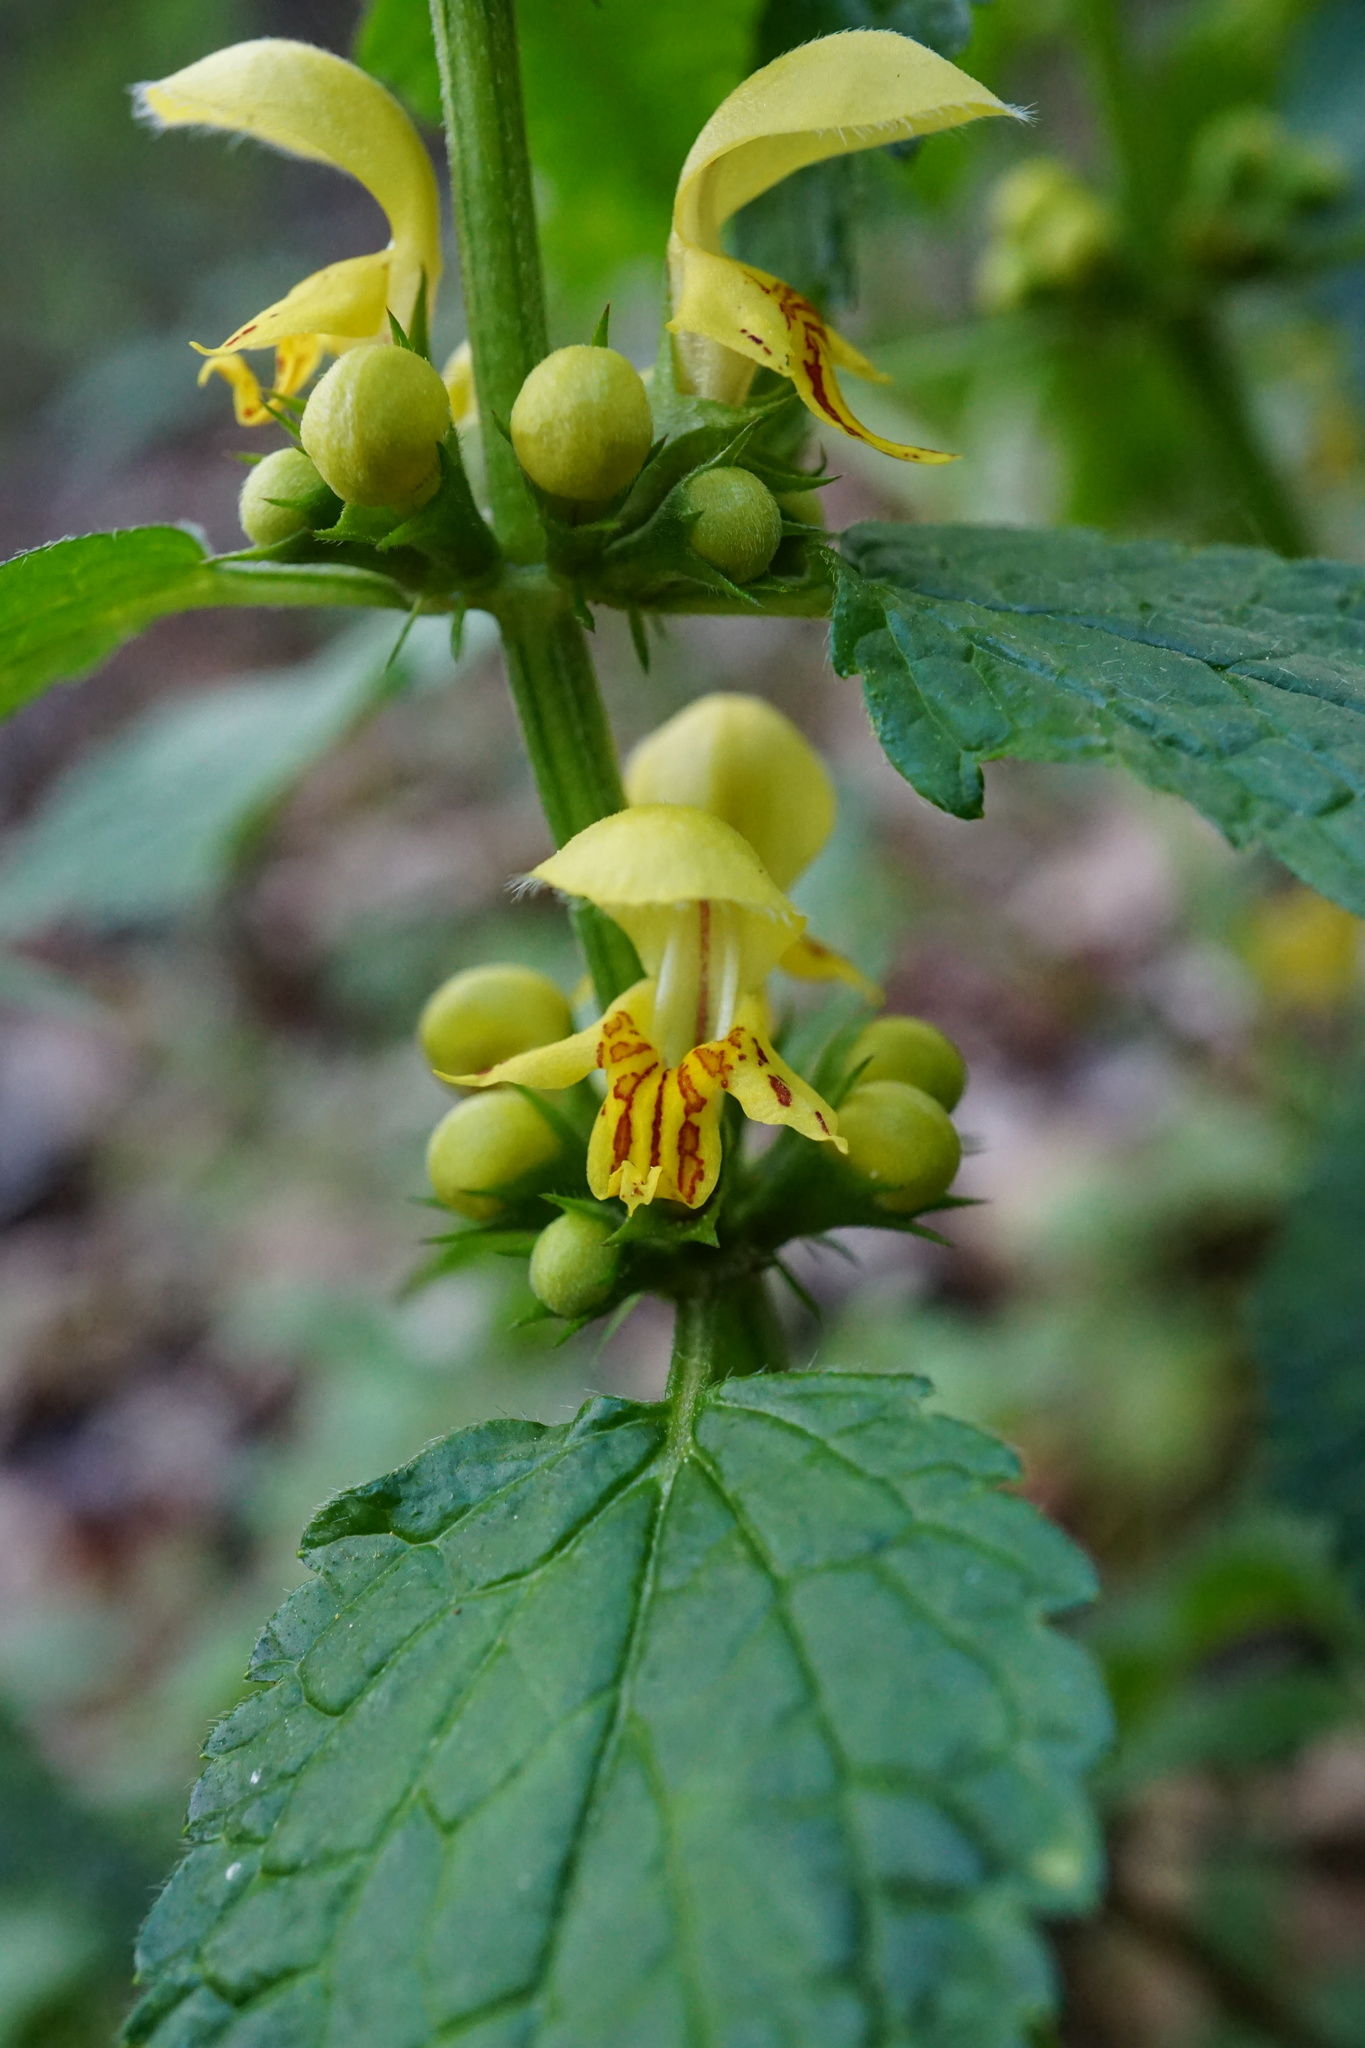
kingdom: Plantae
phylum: Tracheophyta
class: Magnoliopsida
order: Lamiales
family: Lamiaceae
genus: Lamium
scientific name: Lamium galeobdolon
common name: Yellow archangel
